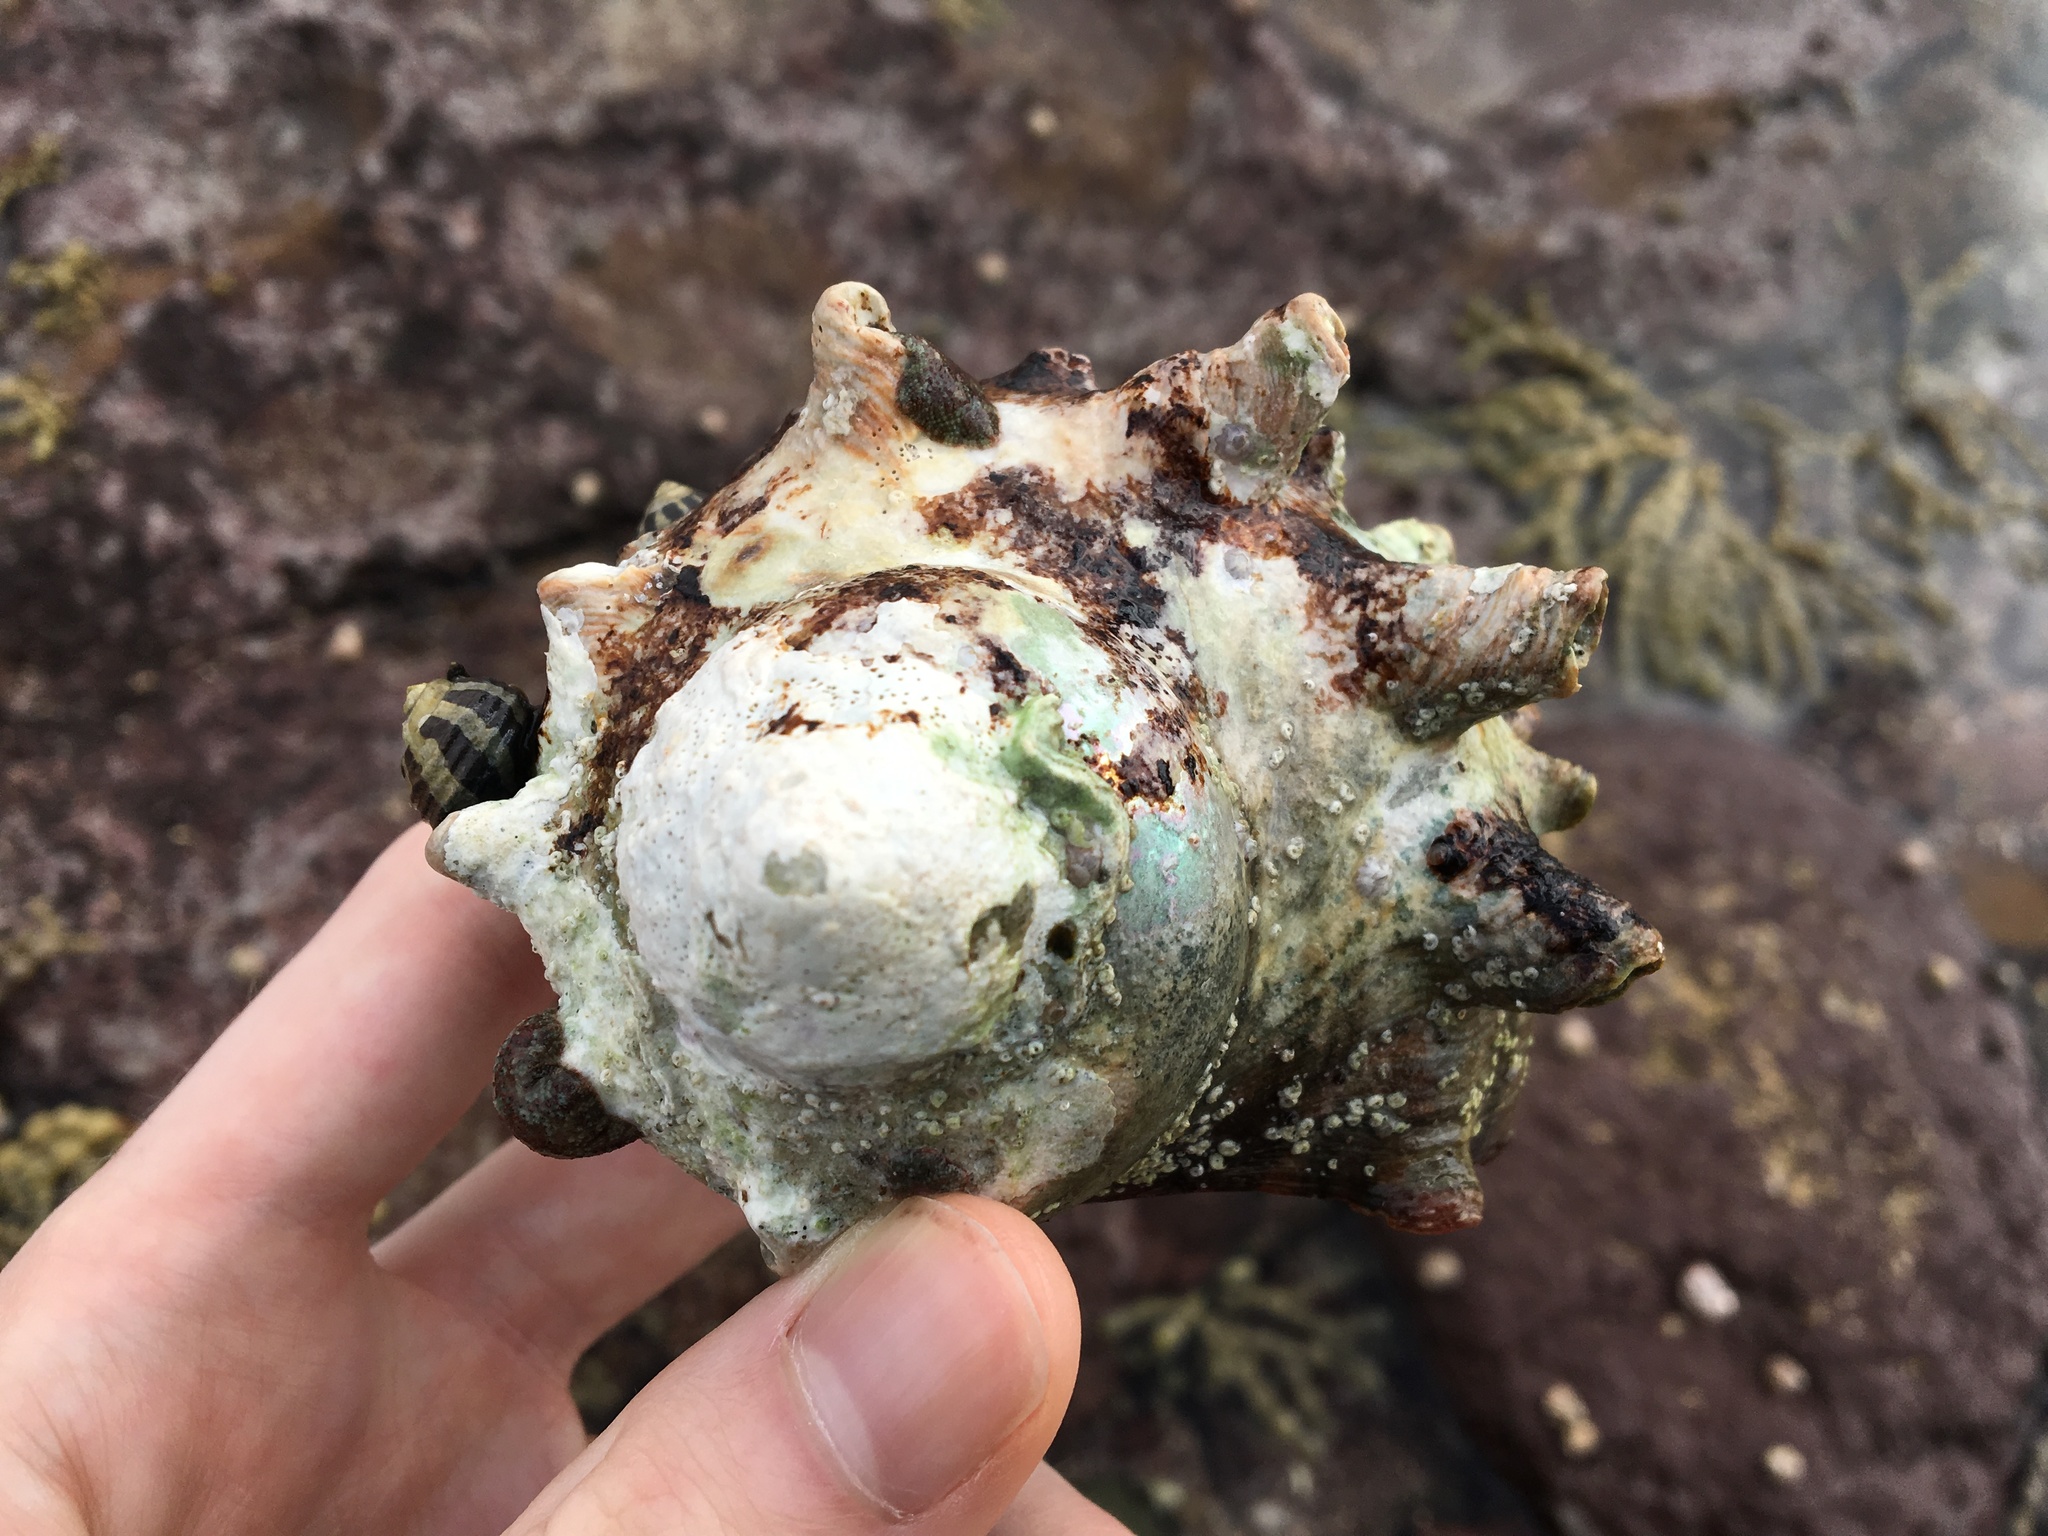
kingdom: Animalia
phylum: Mollusca
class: Gastropoda
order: Trochida
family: Turbinidae
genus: Turbo
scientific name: Turbo militaris
